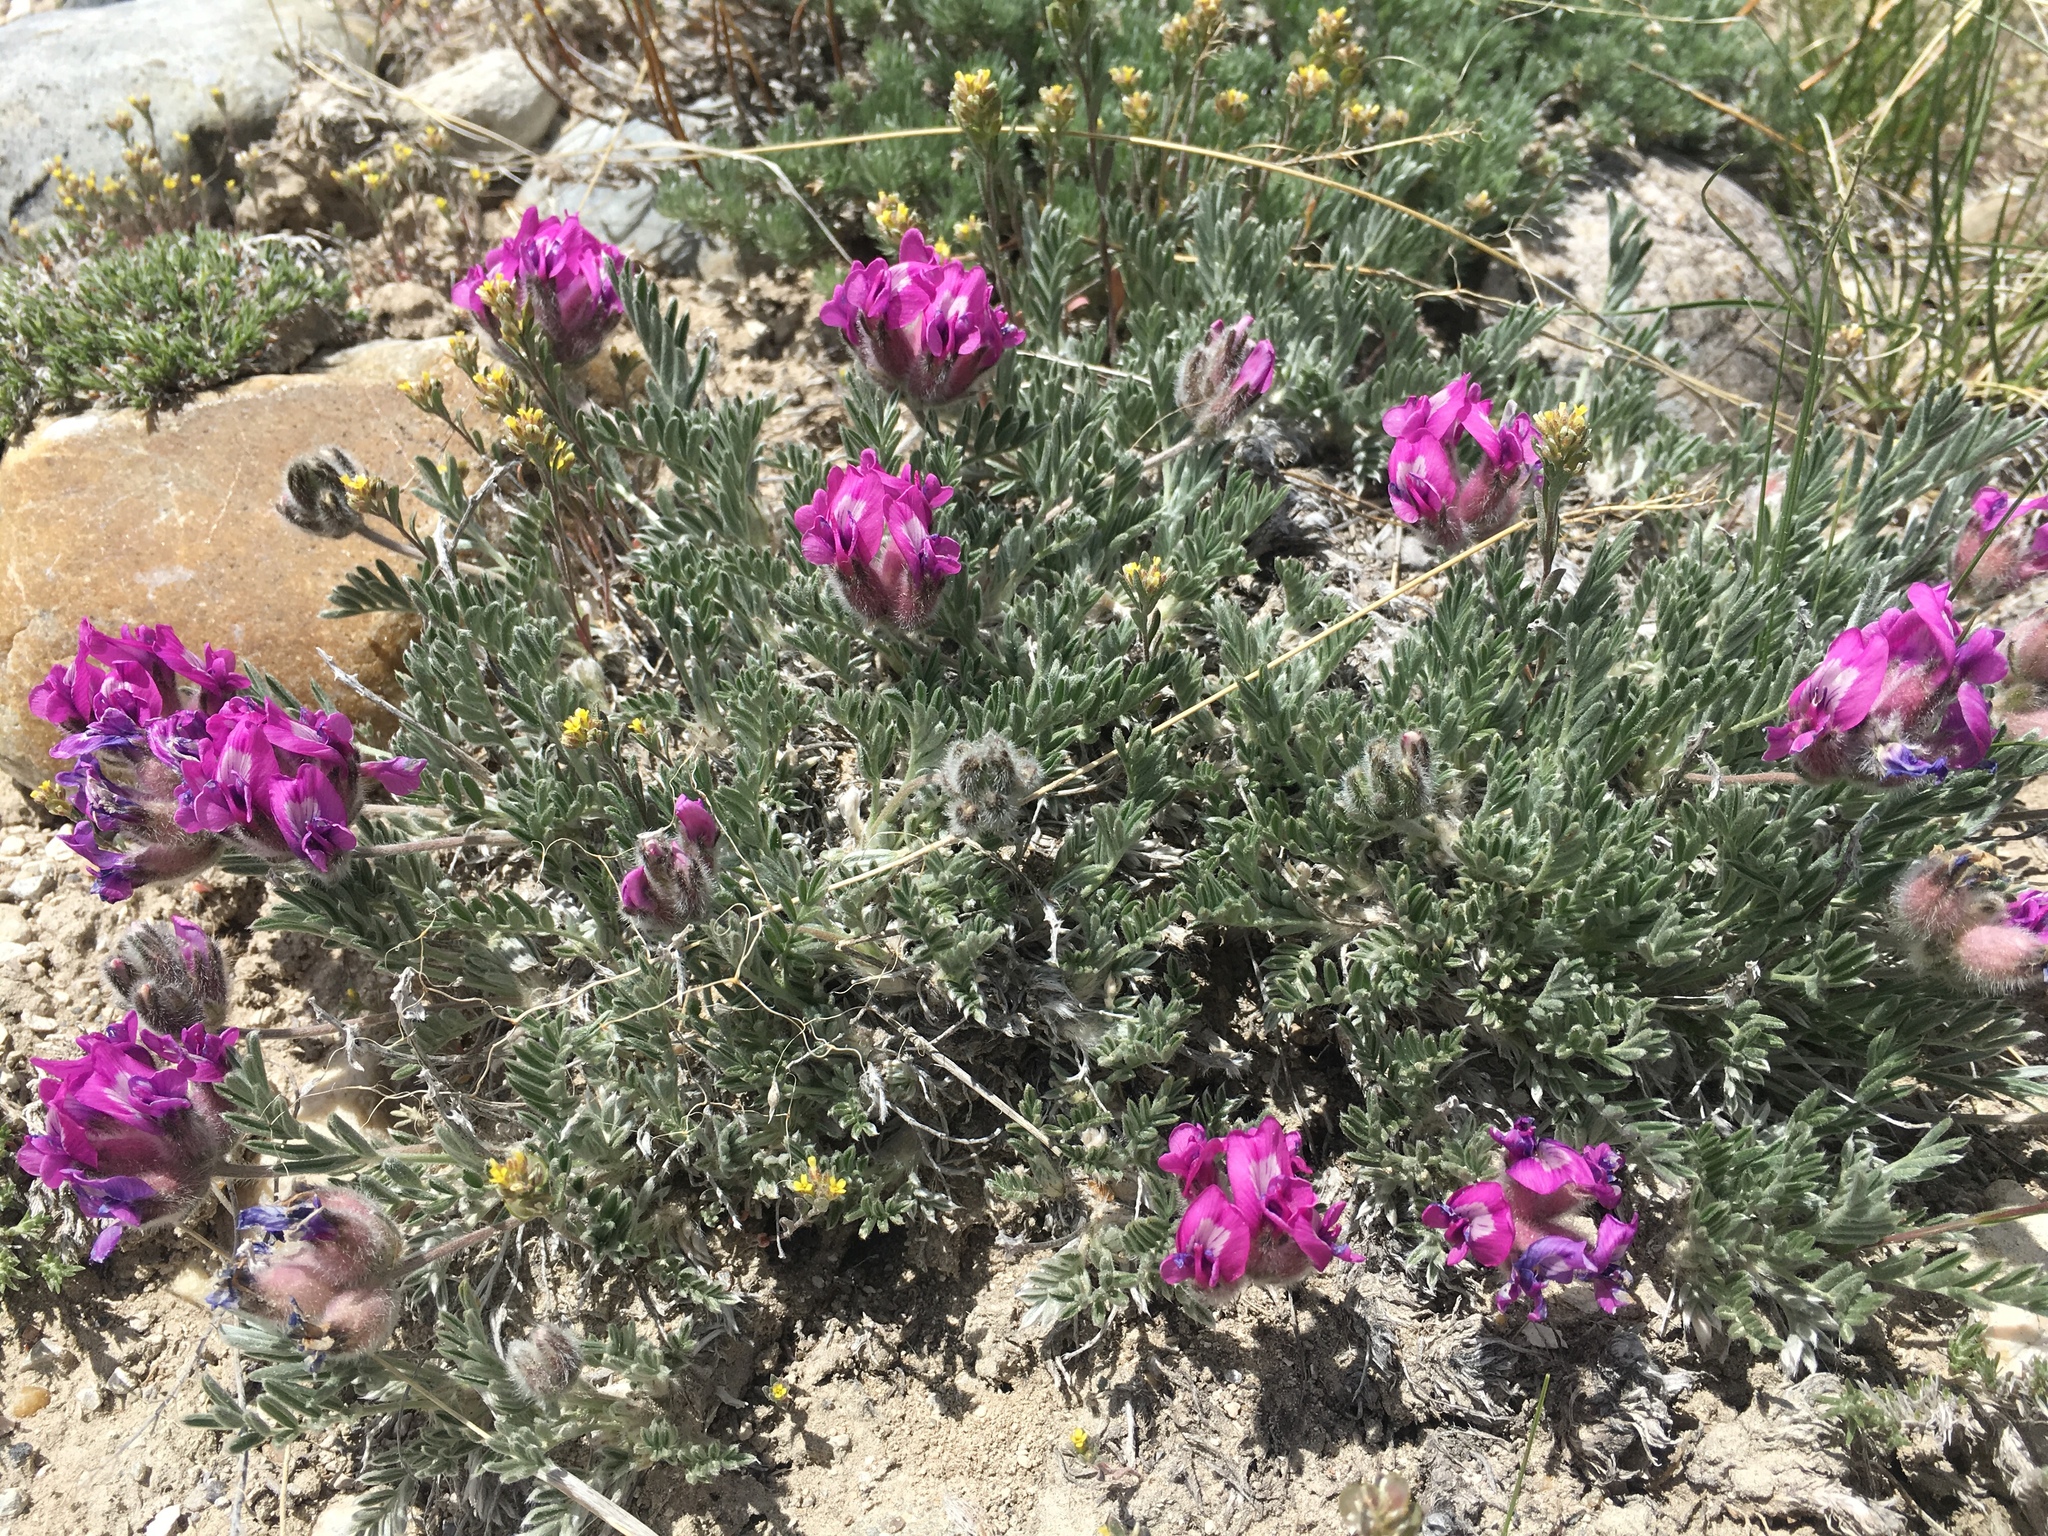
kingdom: Plantae
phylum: Tracheophyta
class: Magnoliopsida
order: Fabales
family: Fabaceae
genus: Oxytropis
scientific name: Oxytropis lagopus
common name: Hare's-foot locoweed
